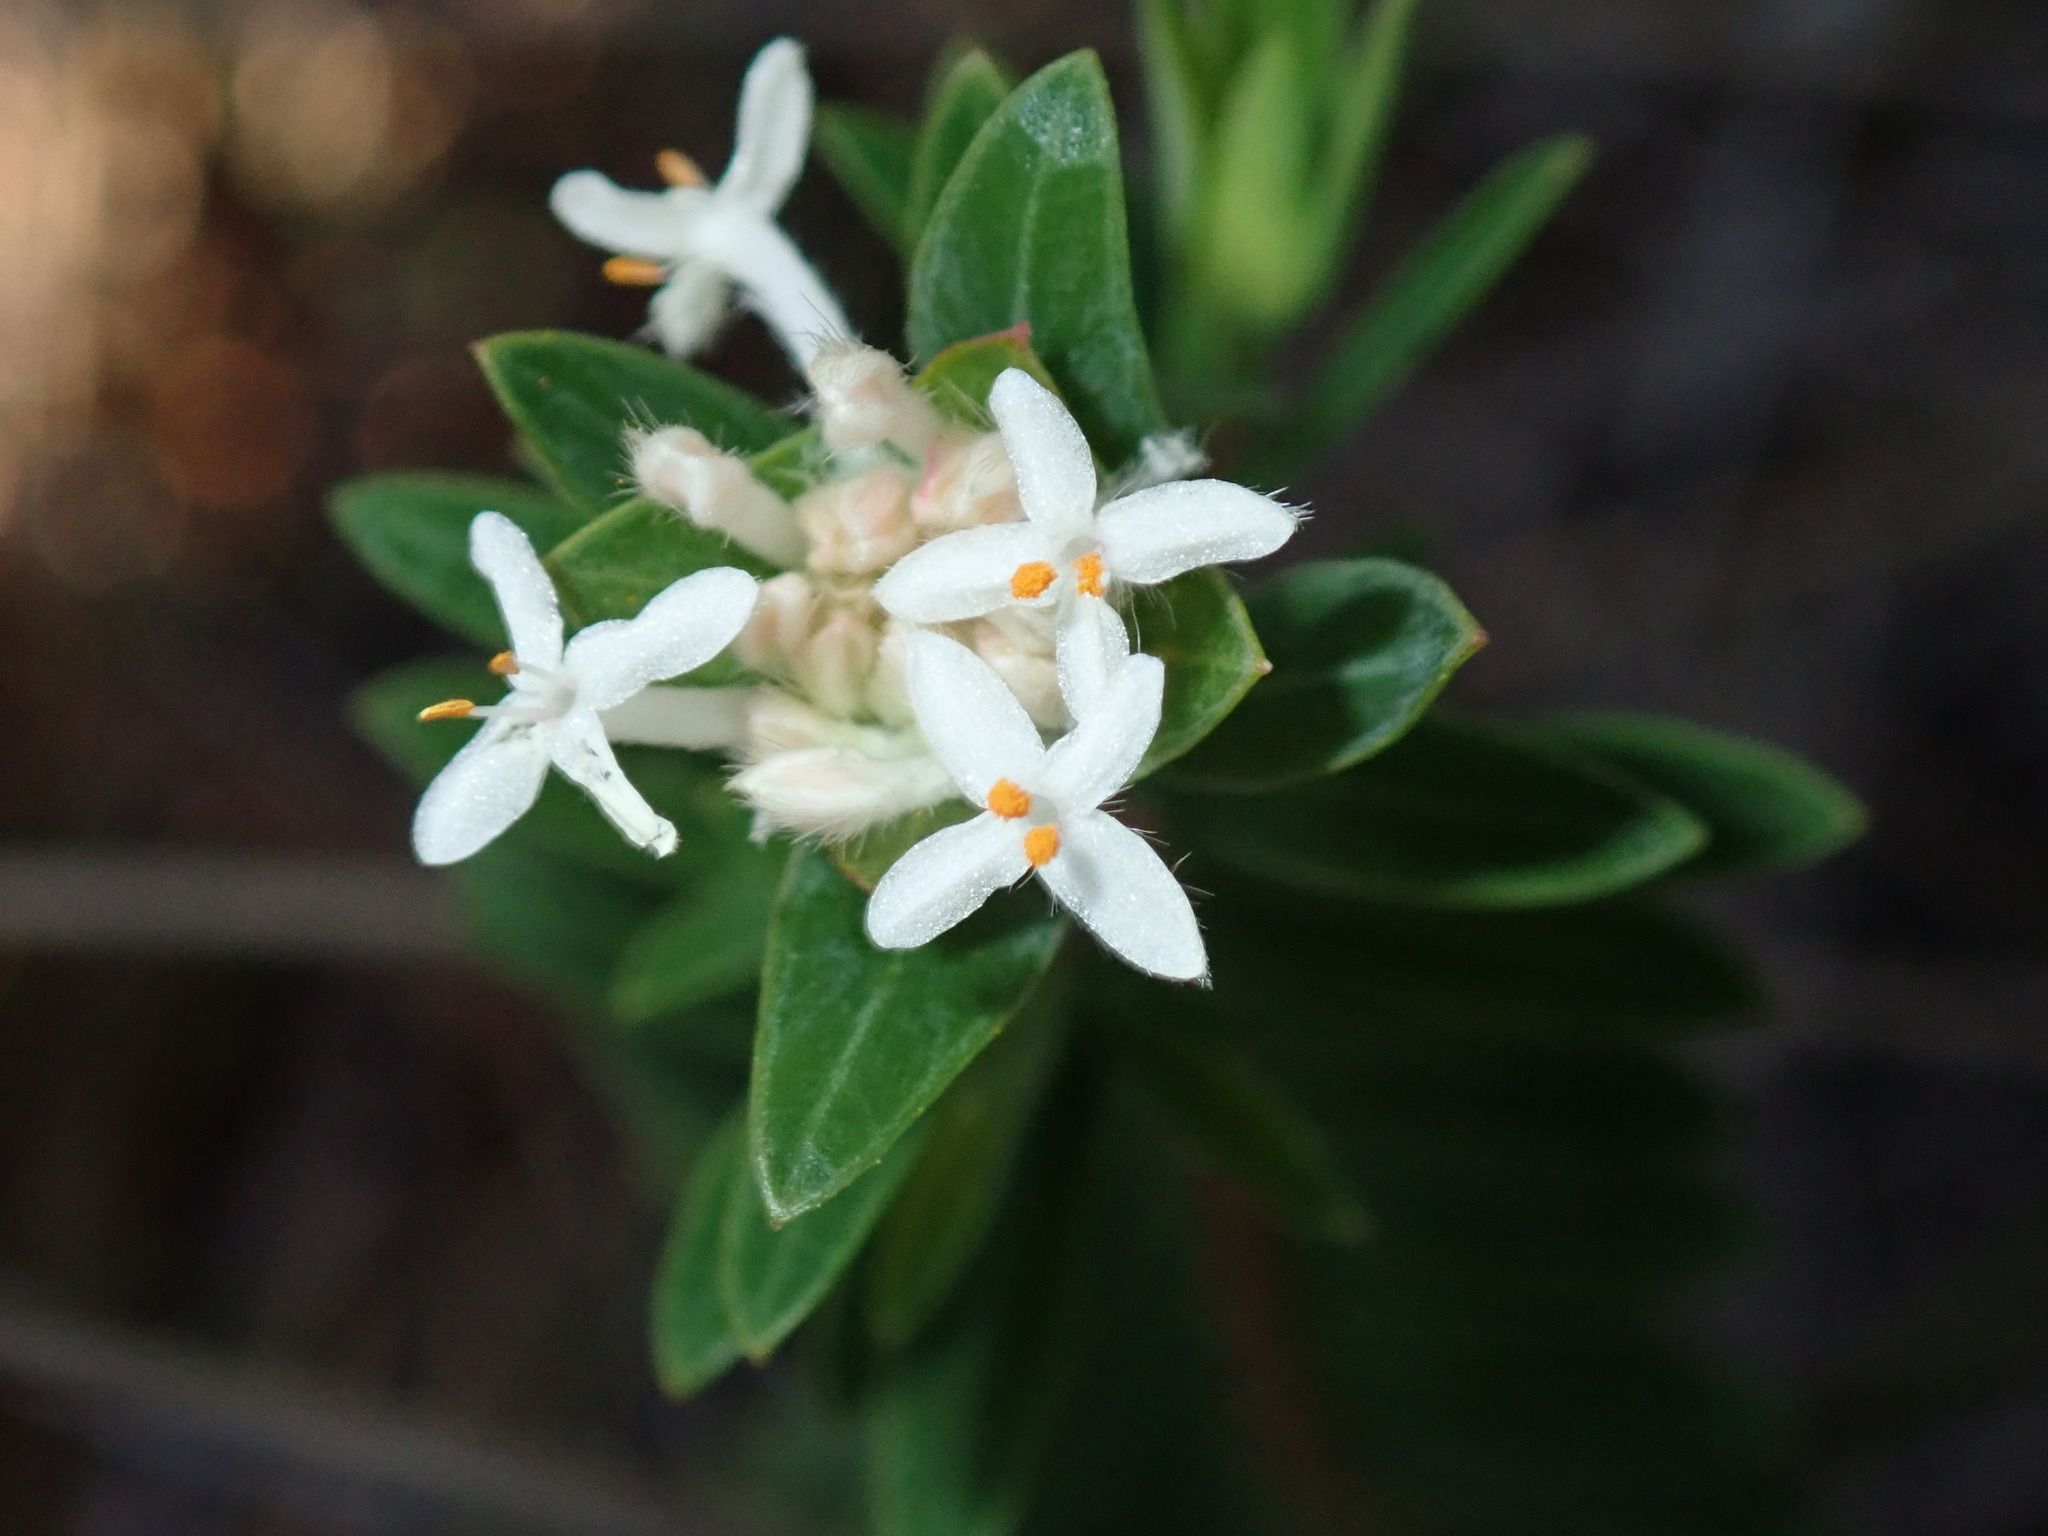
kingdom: Plantae
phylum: Tracheophyta
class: Magnoliopsida
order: Malvales
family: Thymelaeaceae
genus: Pimelea
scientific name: Pimelea linifolia
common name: Queen-of-the-bush
